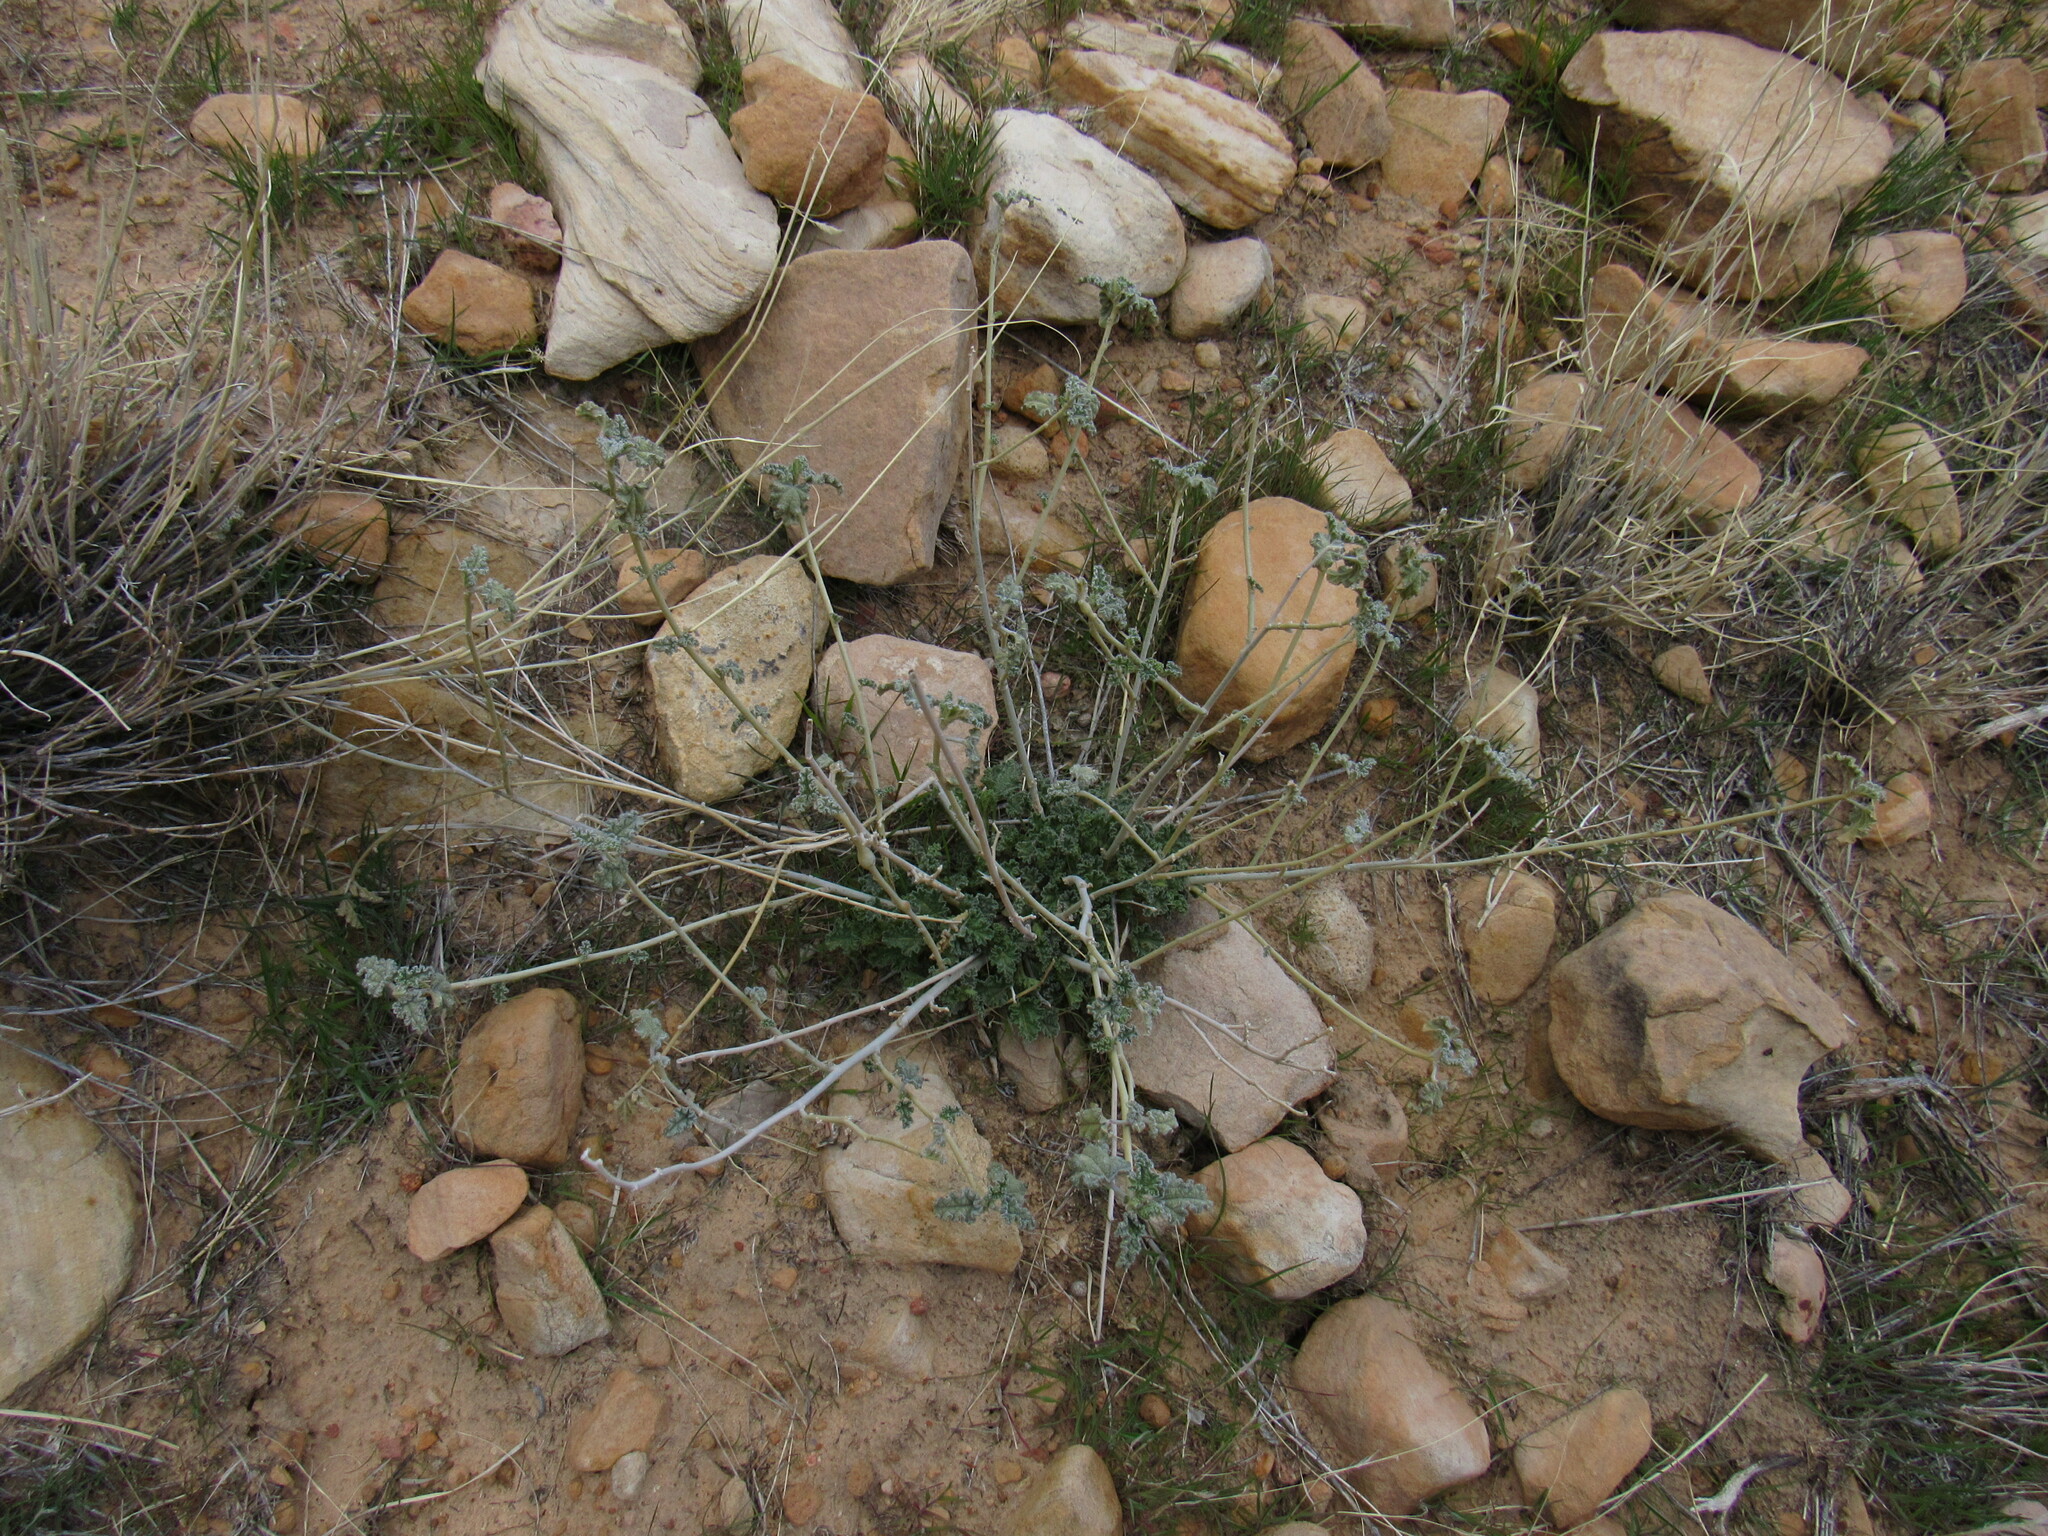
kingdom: Plantae
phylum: Tracheophyta
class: Magnoliopsida
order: Malvales
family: Malvaceae
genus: Sphaeralcea
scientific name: Sphaeralcea ambigua
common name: Apricot globe-mallow
